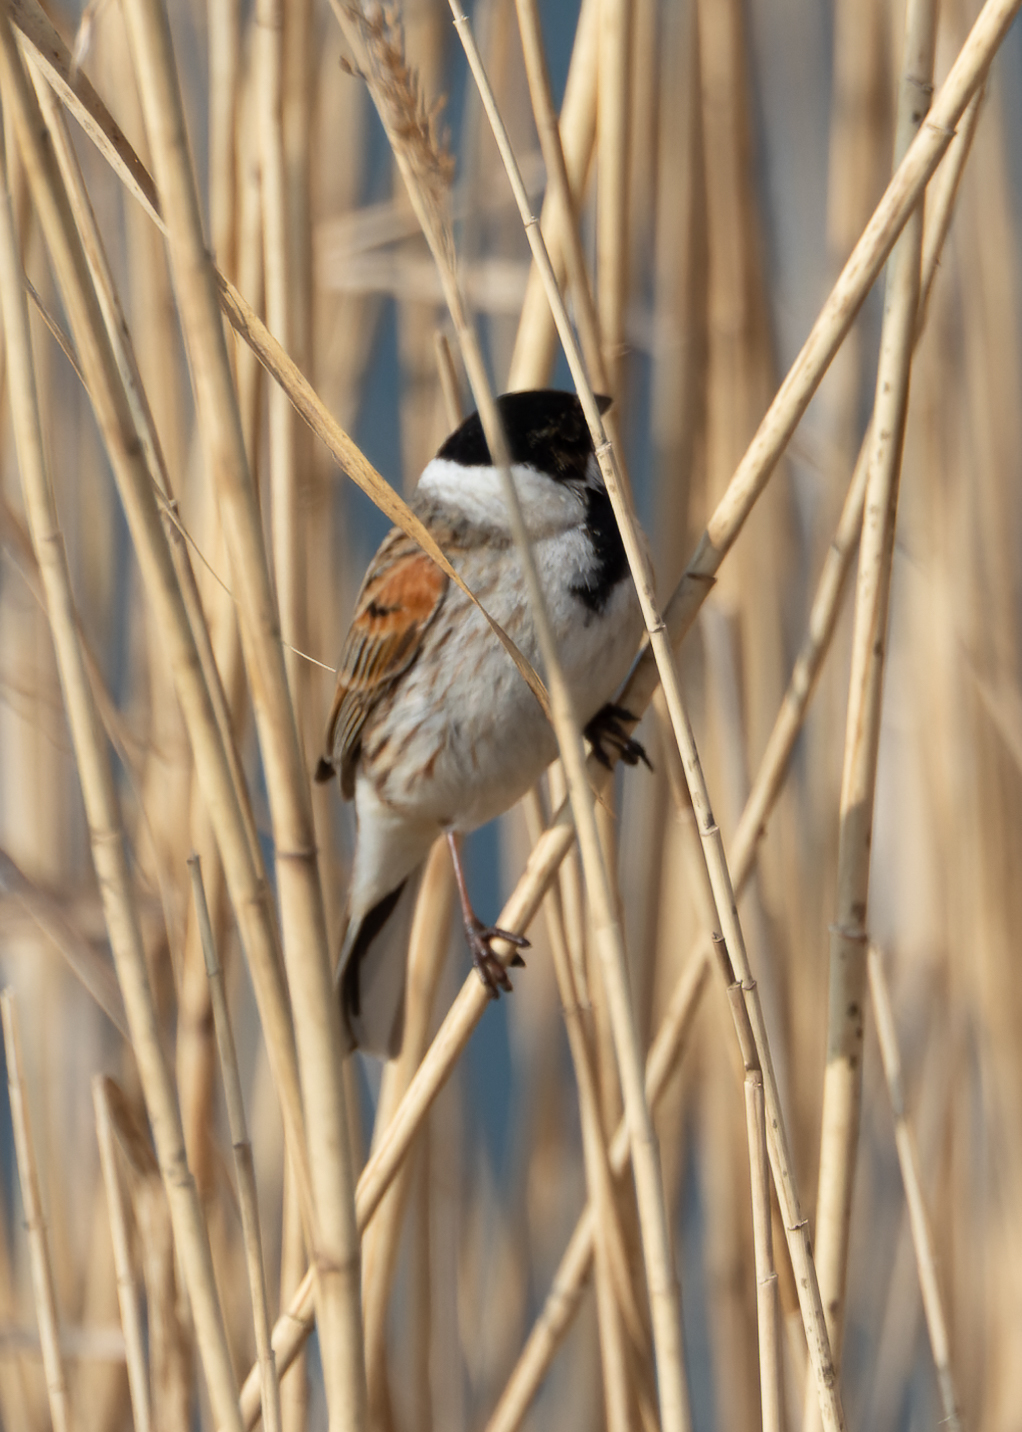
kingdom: Animalia
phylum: Chordata
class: Aves
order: Passeriformes
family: Emberizidae
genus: Emberiza
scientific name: Emberiza schoeniclus
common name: Reed bunting
